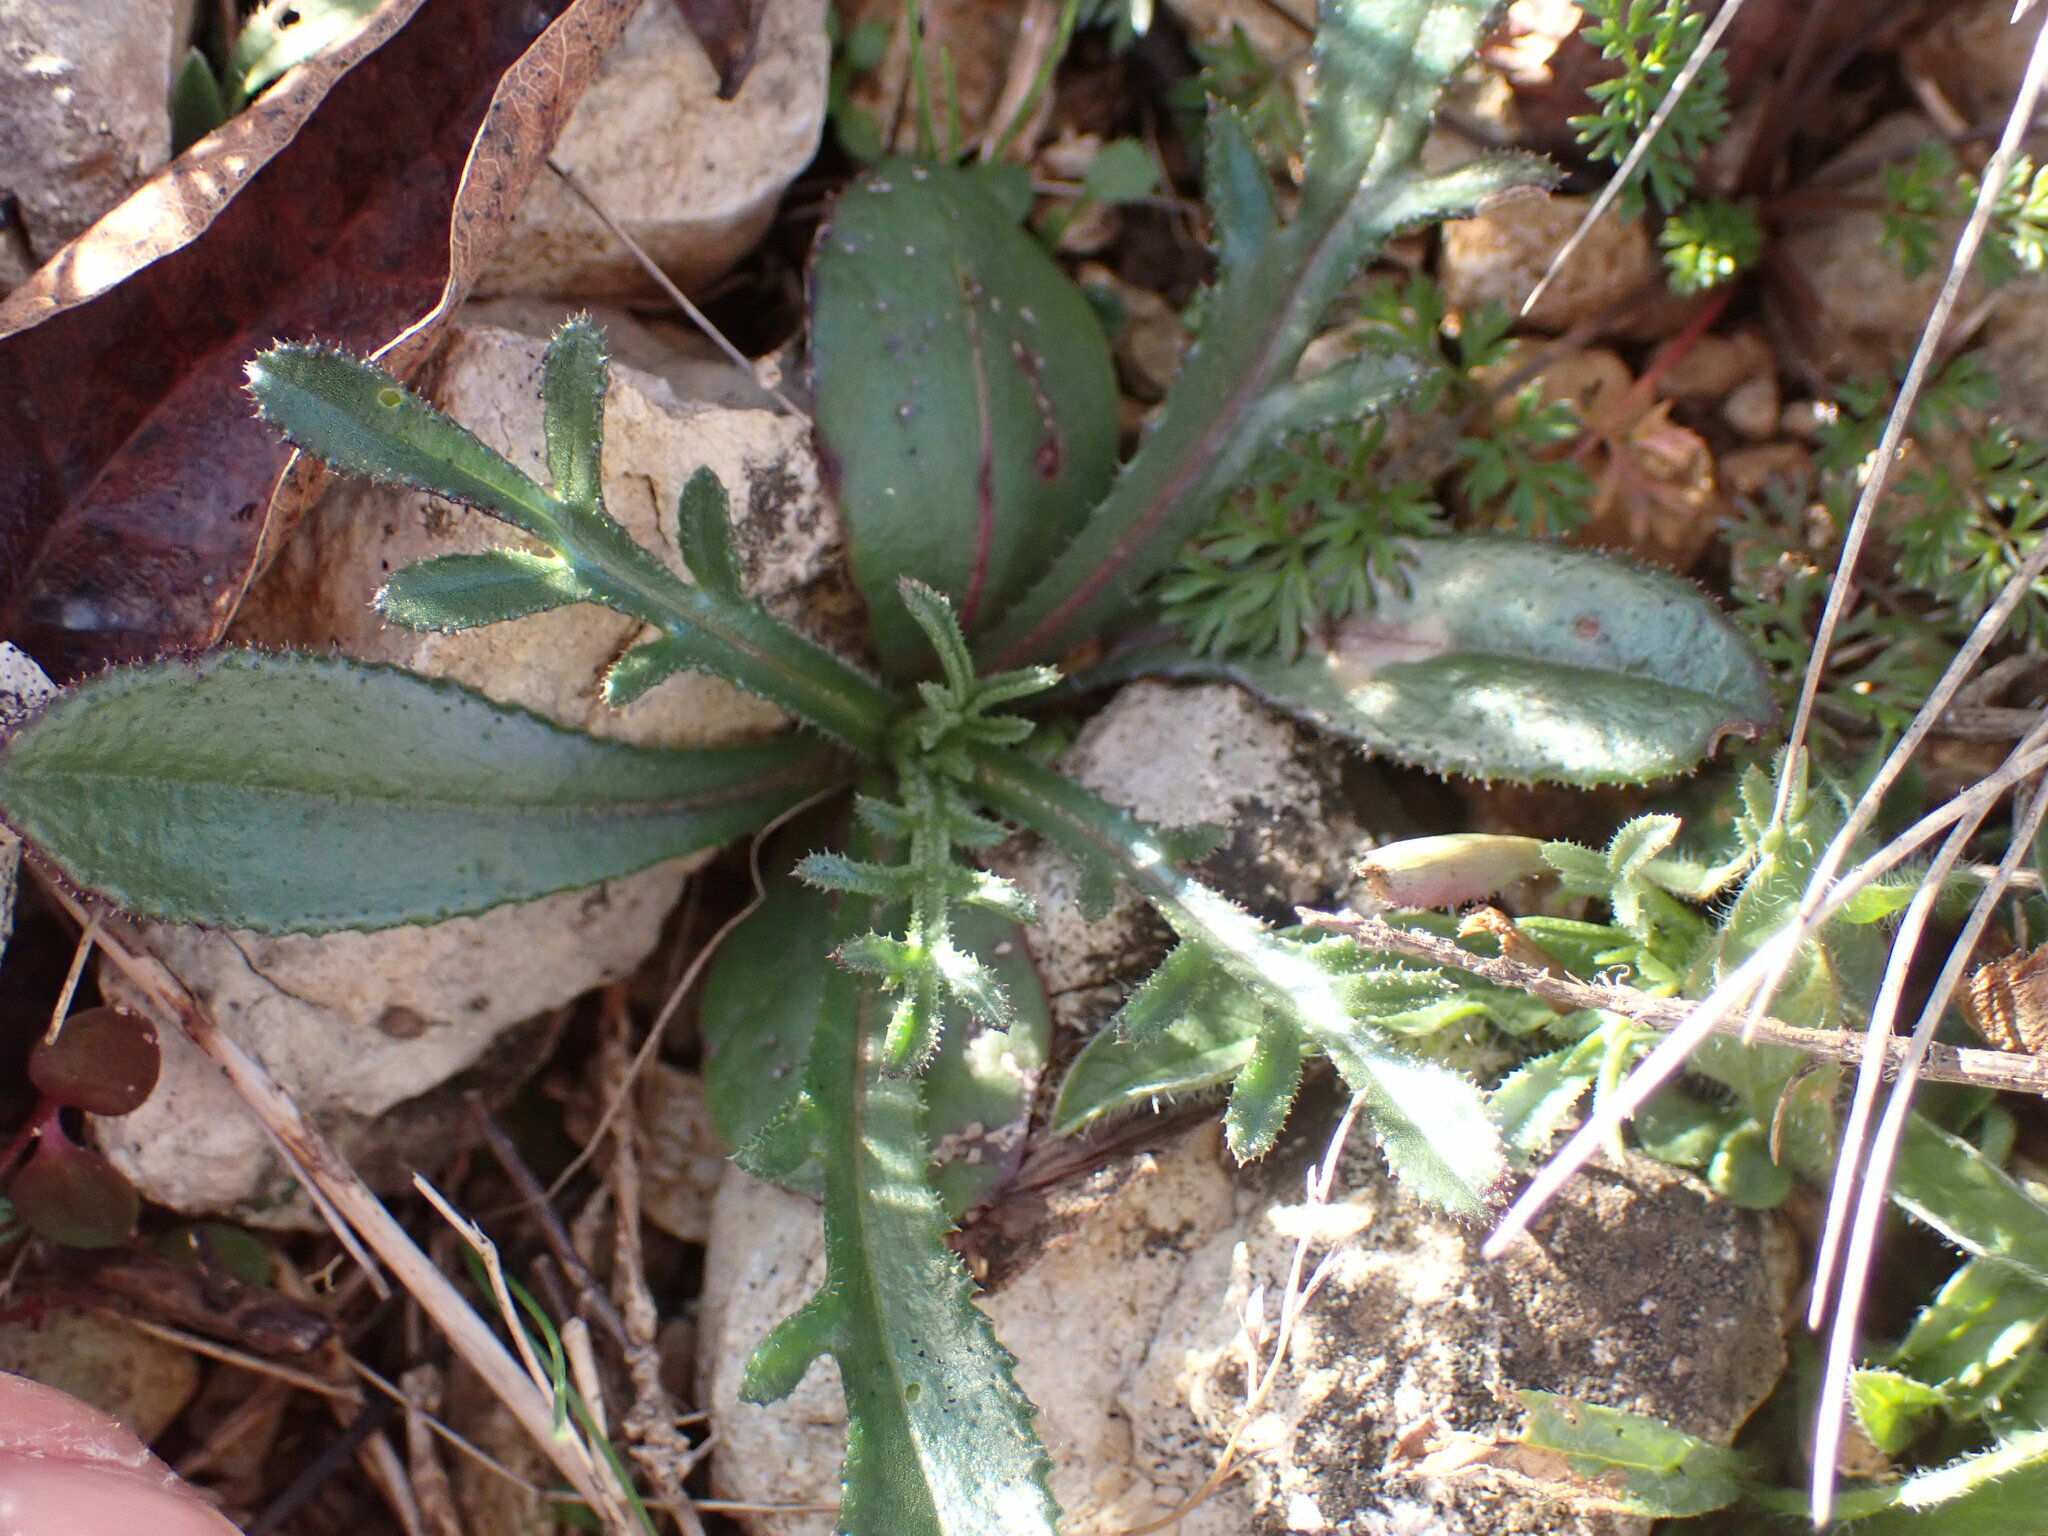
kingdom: Plantae
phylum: Tracheophyta
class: Magnoliopsida
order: Asterales
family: Asteraceae
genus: Crupina
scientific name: Crupina vulgaris
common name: Common crupina
